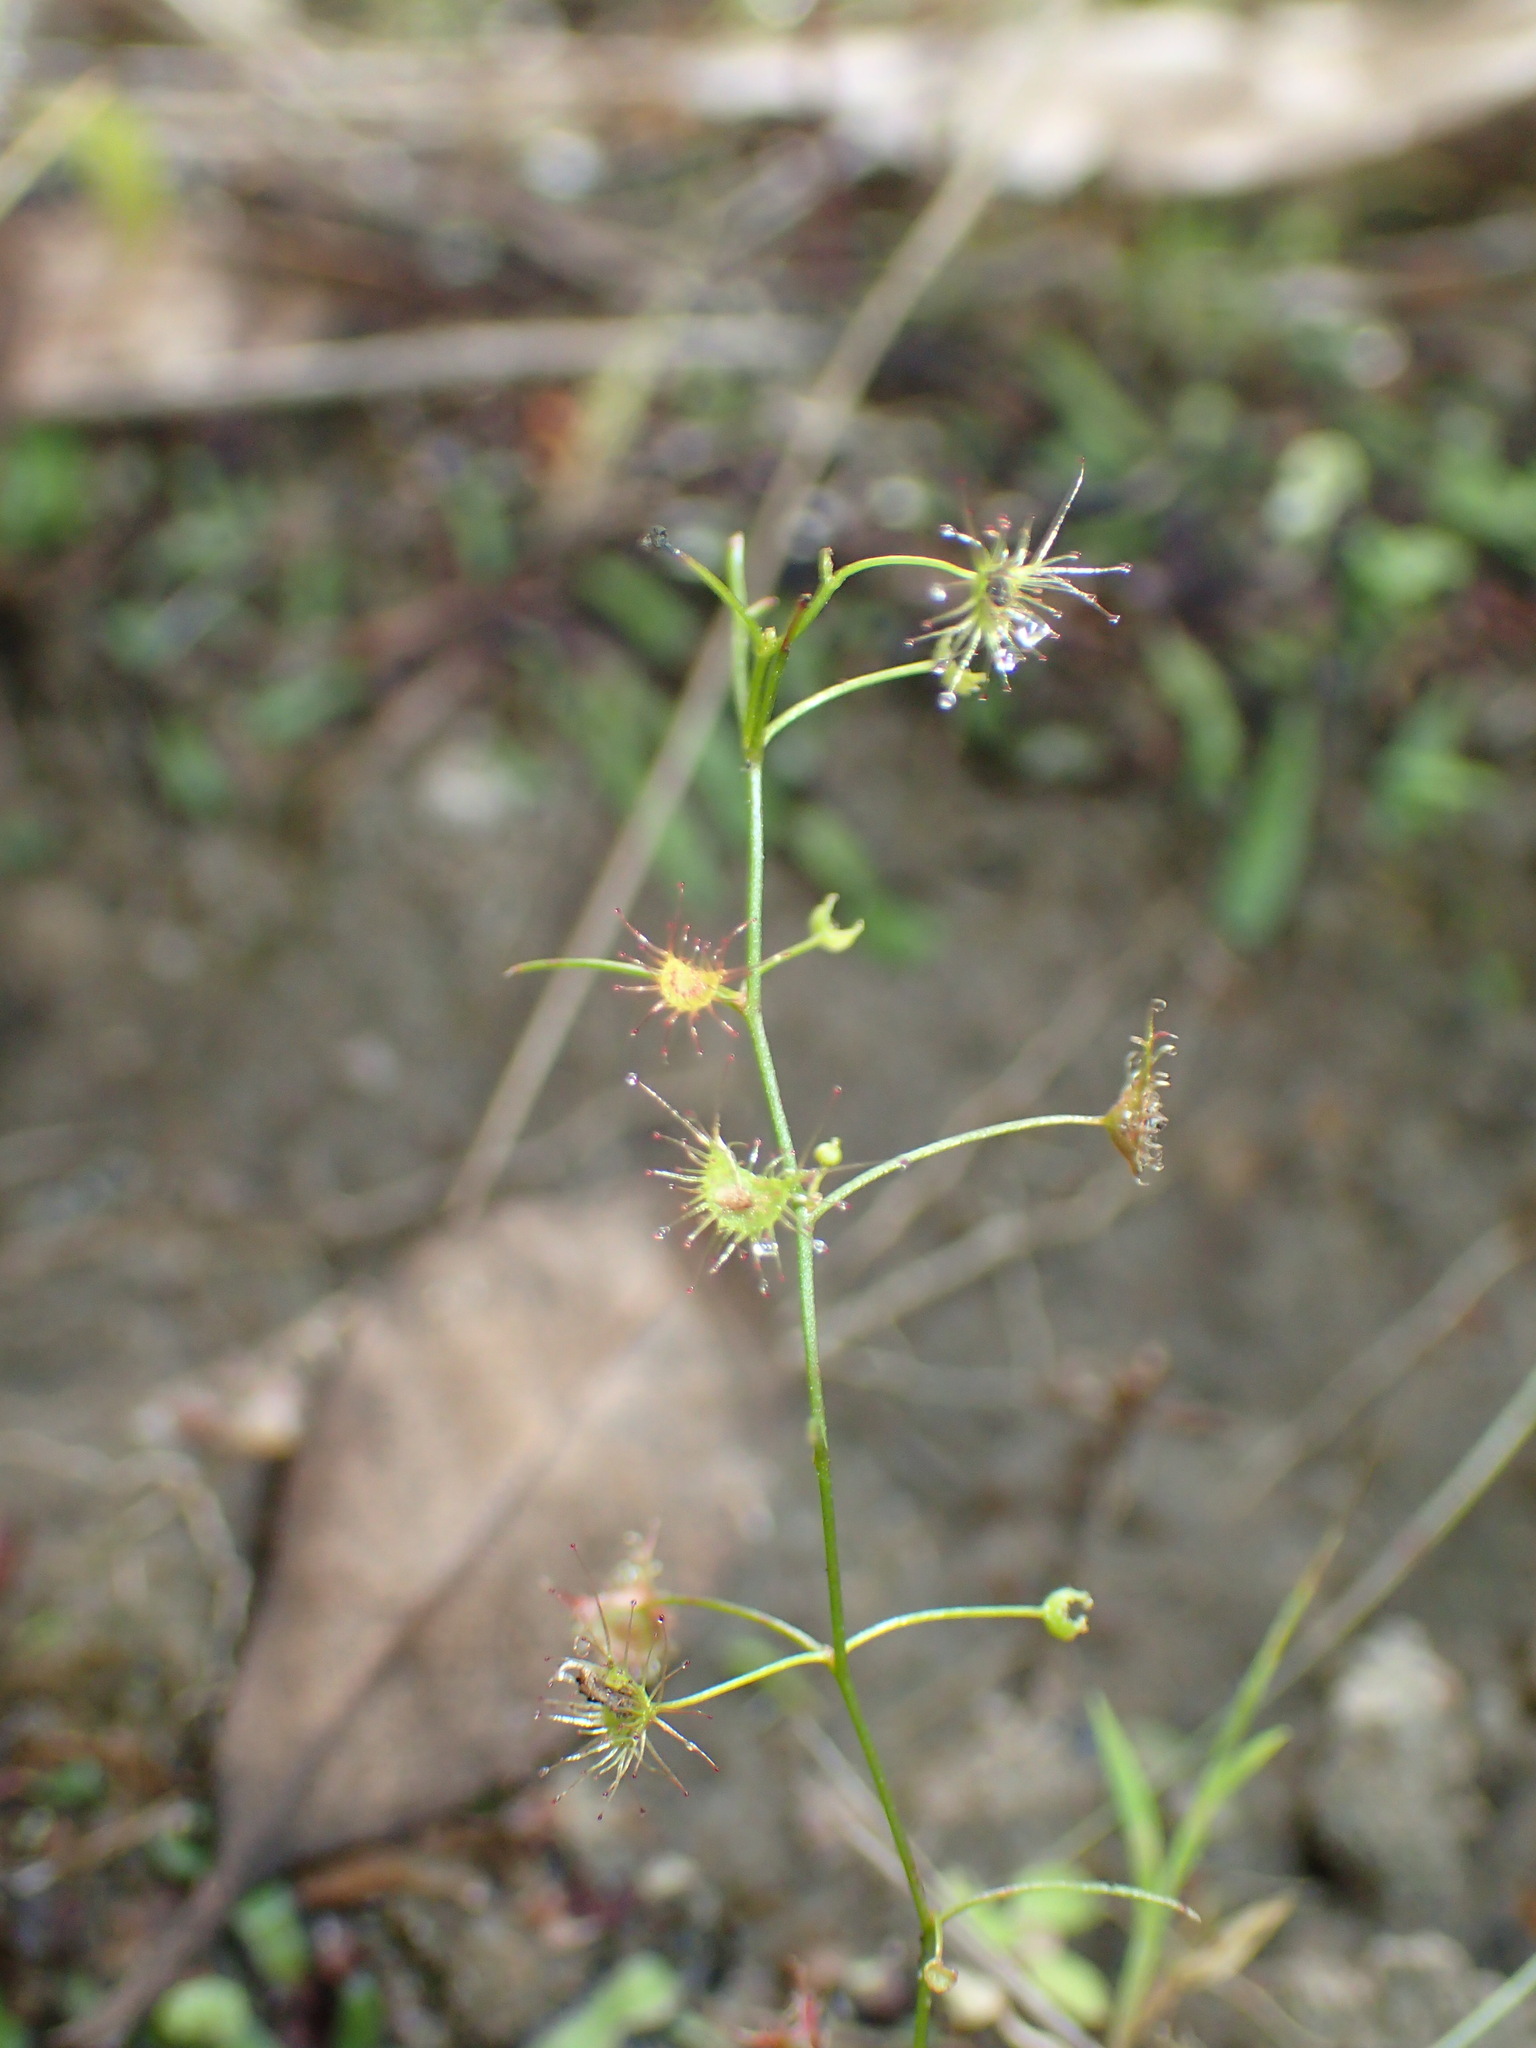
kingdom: Plantae
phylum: Tracheophyta
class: Magnoliopsida
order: Caryophyllales
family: Droseraceae
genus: Drosera
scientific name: Drosera peltata
